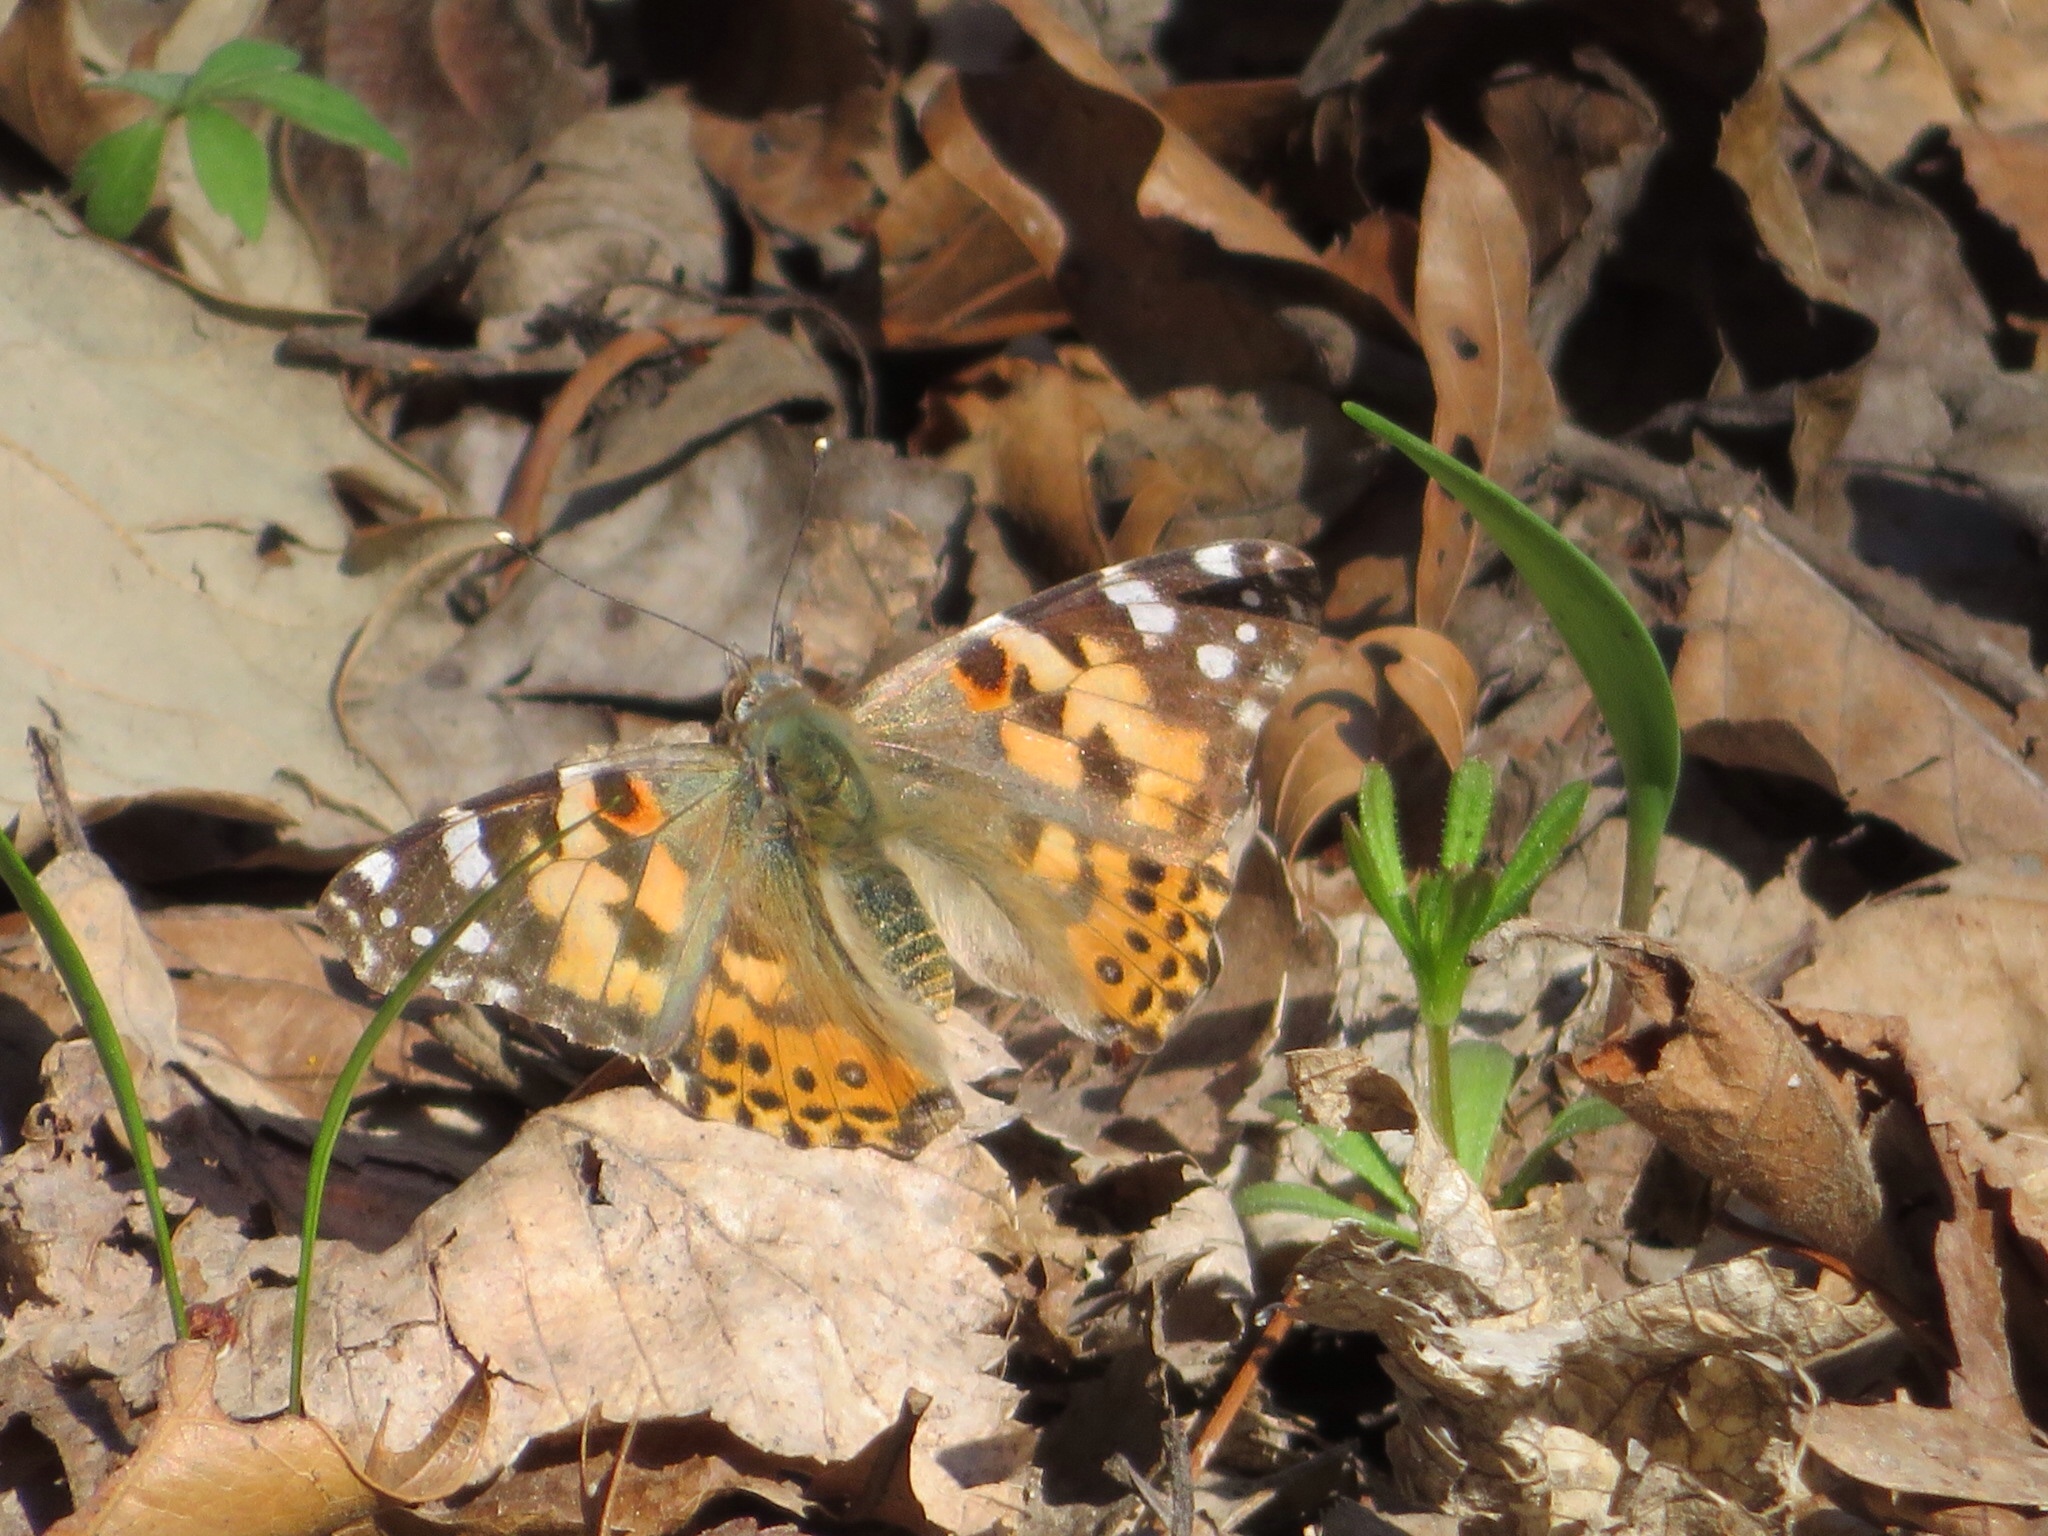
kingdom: Animalia
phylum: Arthropoda
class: Insecta
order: Lepidoptera
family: Nymphalidae
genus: Vanessa
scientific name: Vanessa cardui
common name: Painted lady
